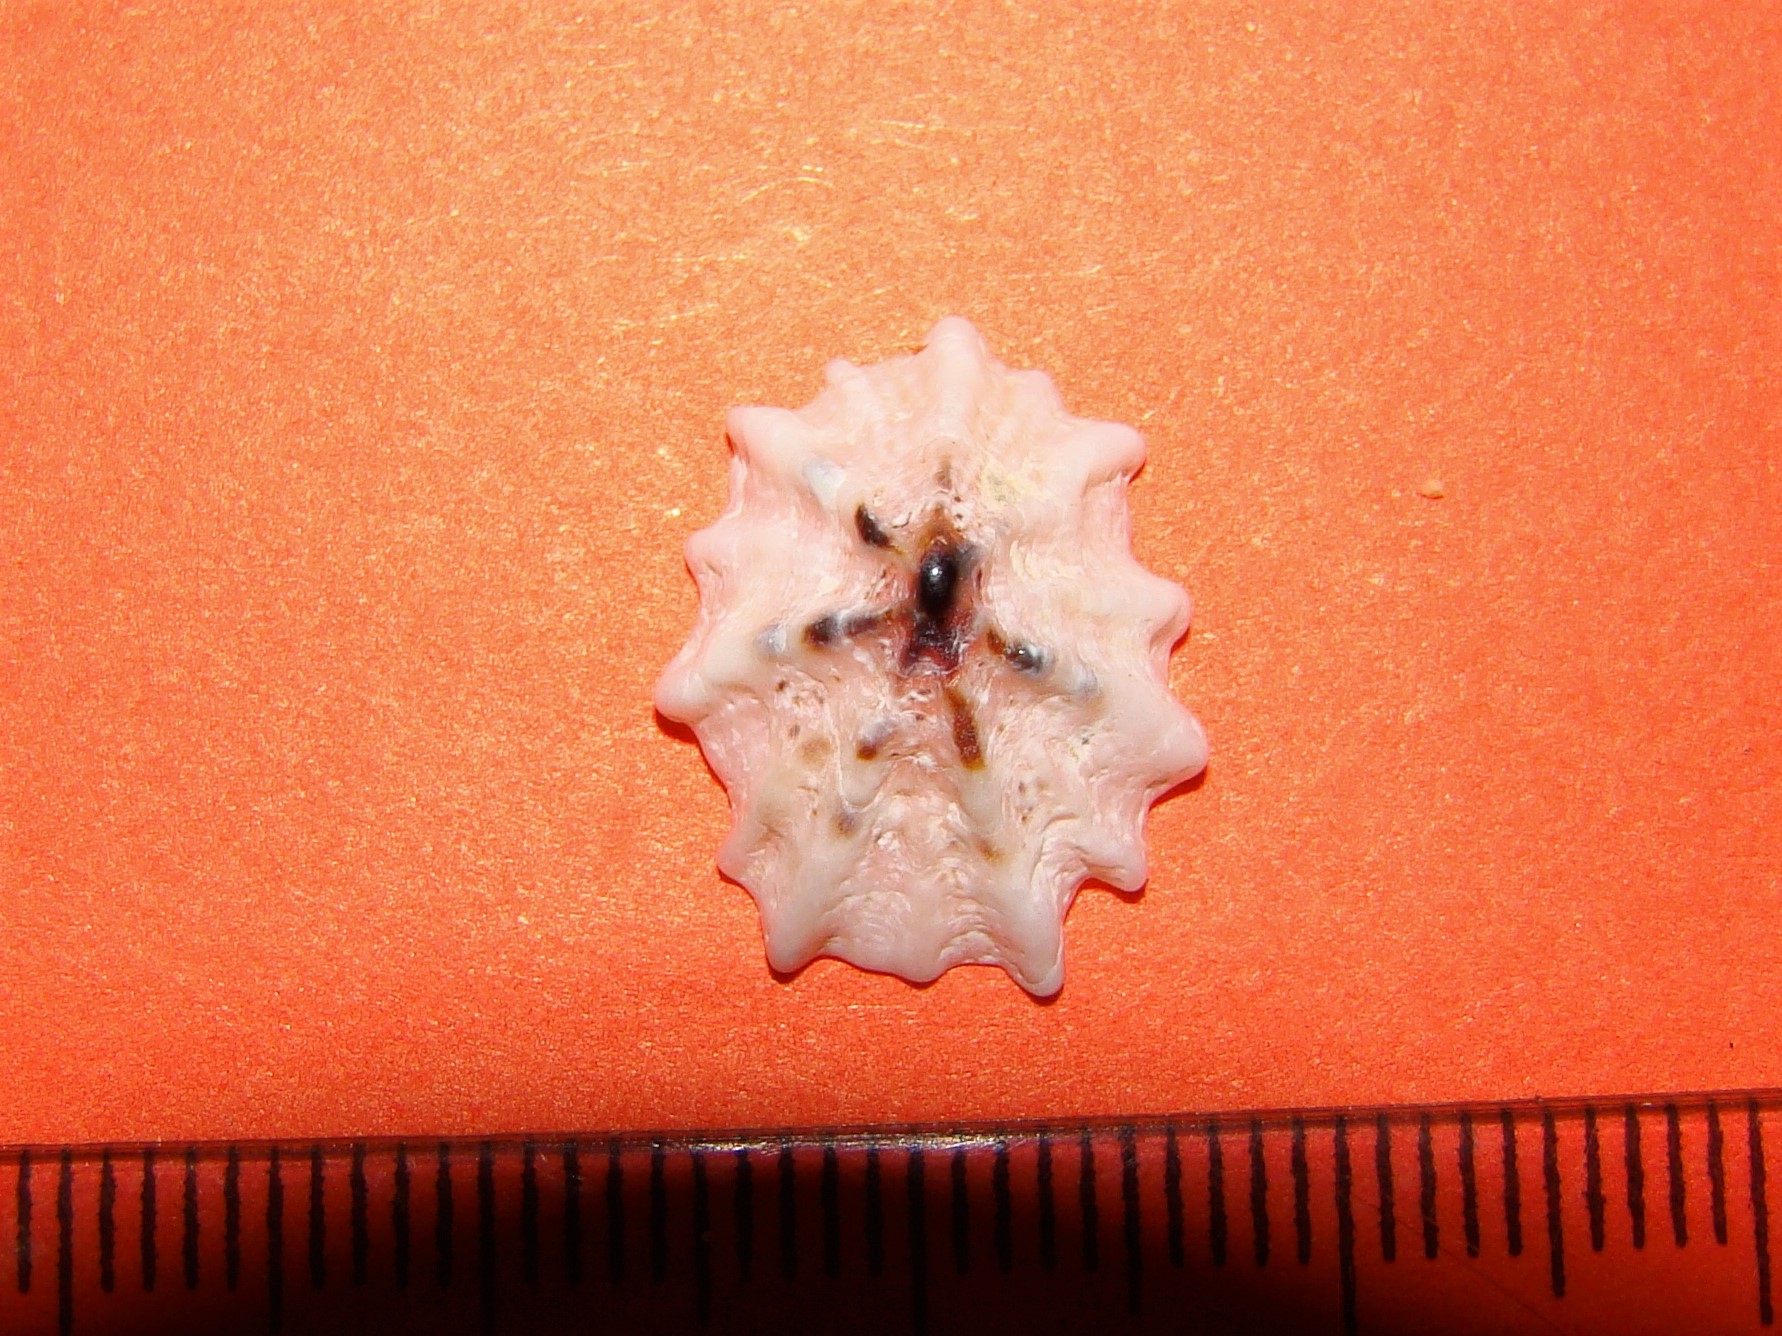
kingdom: Animalia
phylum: Mollusca
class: Gastropoda
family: Lottiidae
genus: Patelloida
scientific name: Patelloida corticata
